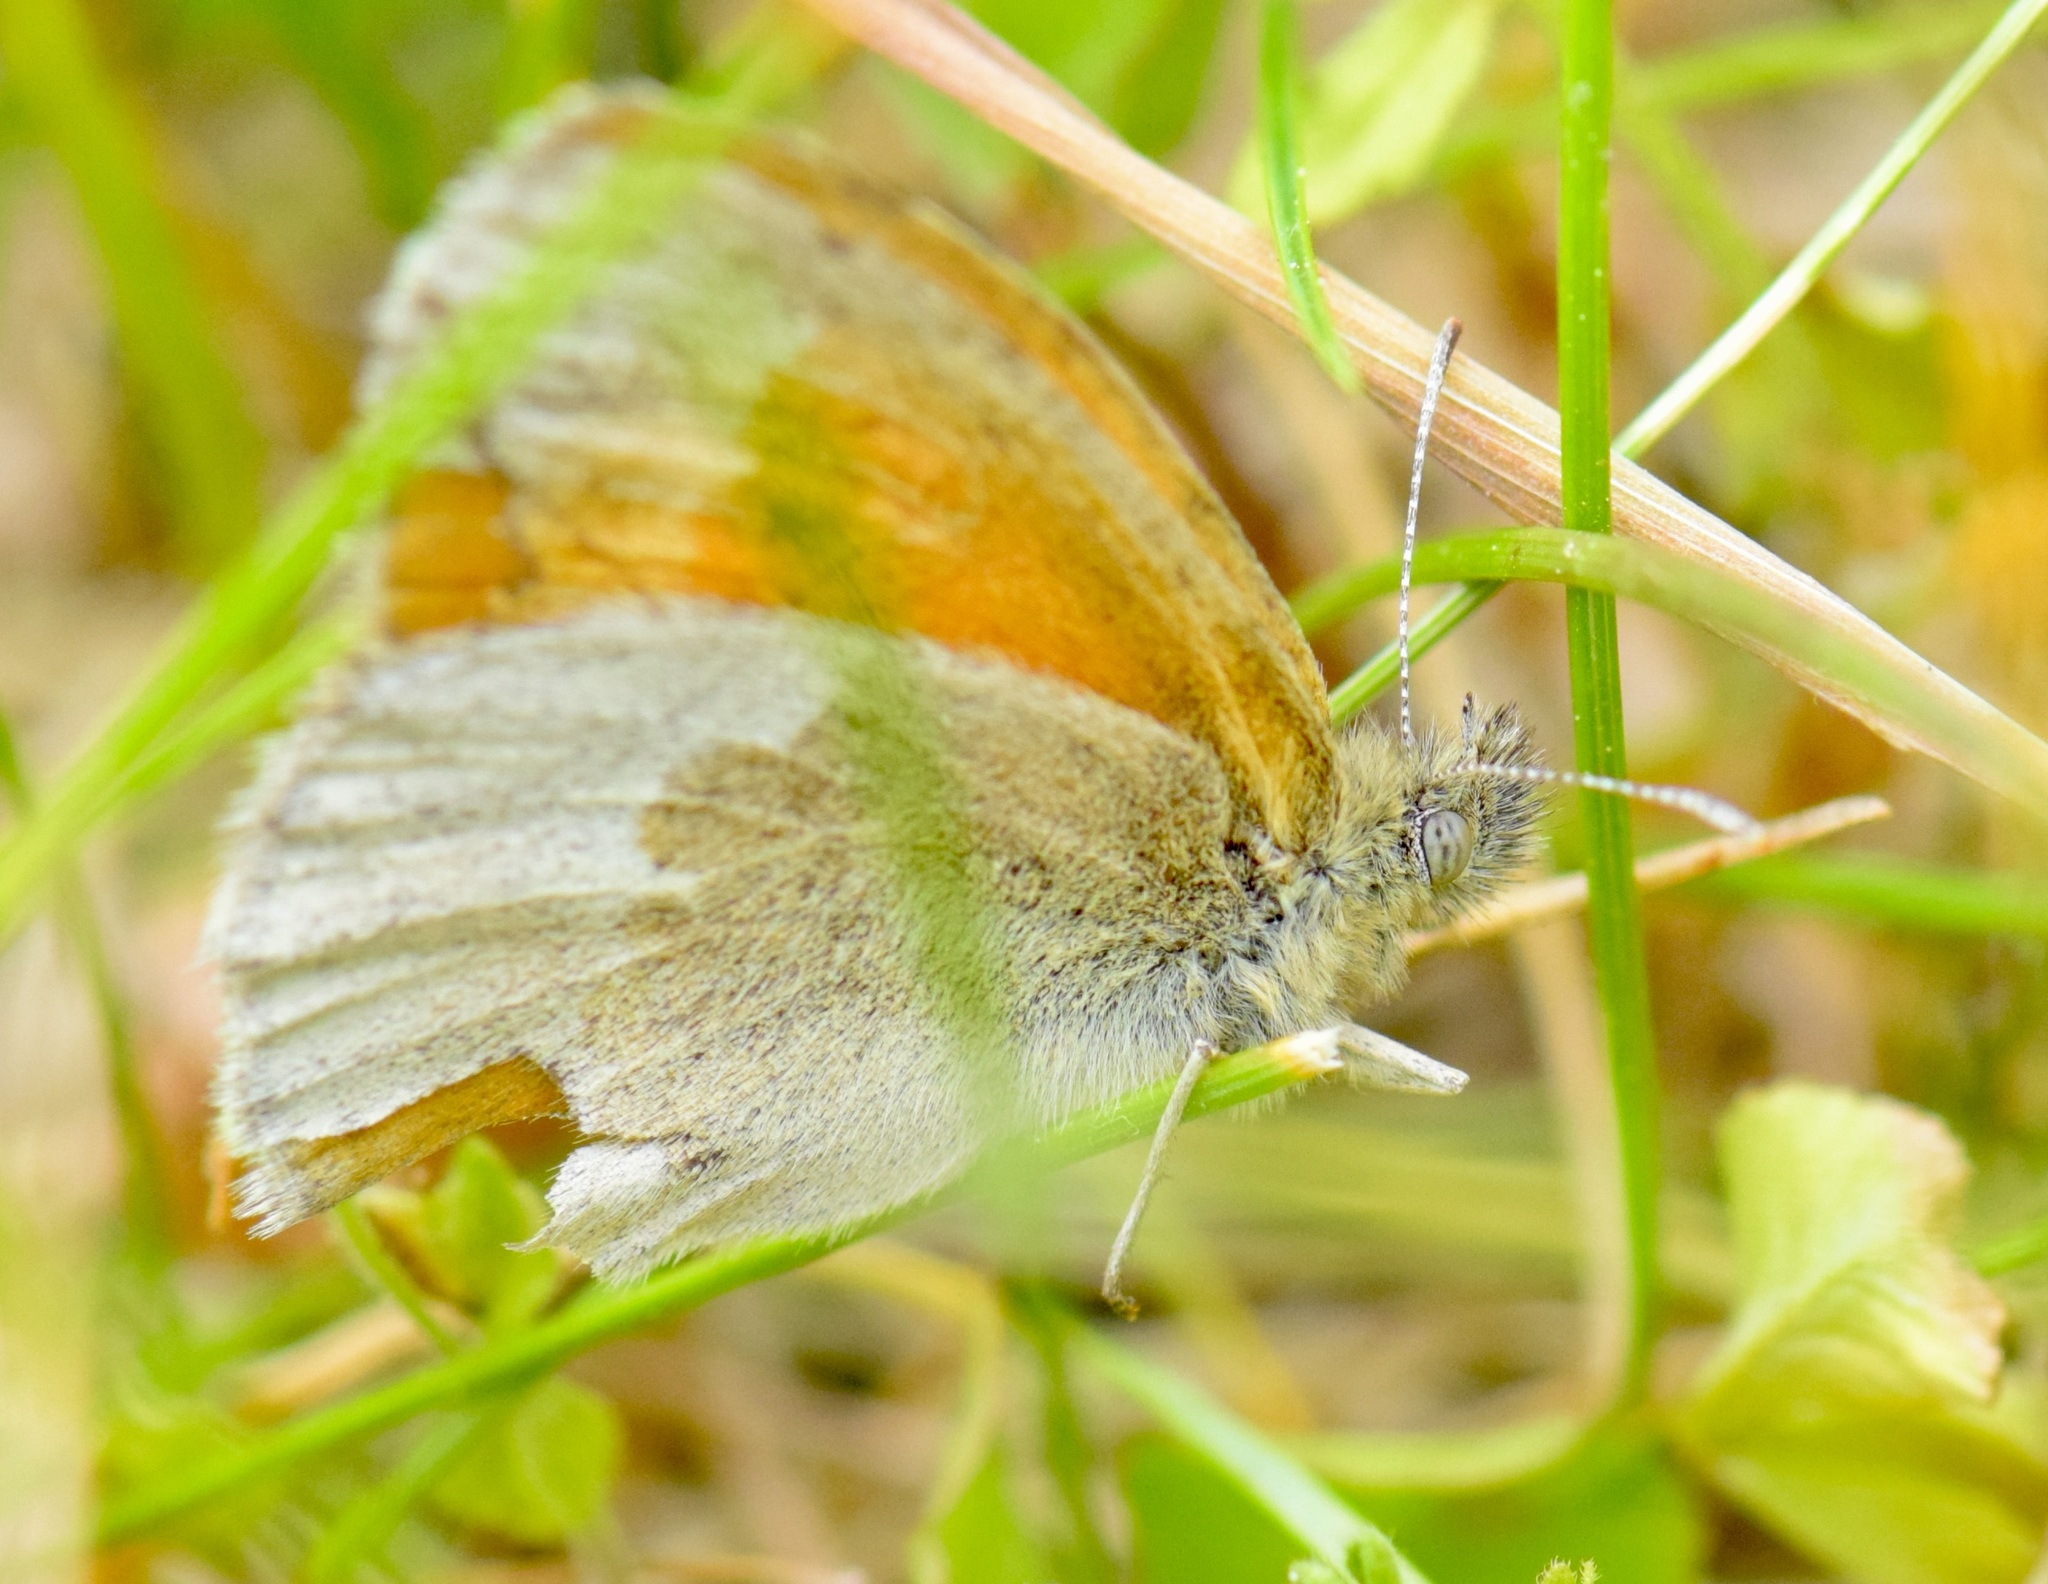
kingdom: Animalia
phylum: Arthropoda
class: Insecta
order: Lepidoptera
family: Nymphalidae
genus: Coenonympha
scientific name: Coenonympha california
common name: Common ringlet
